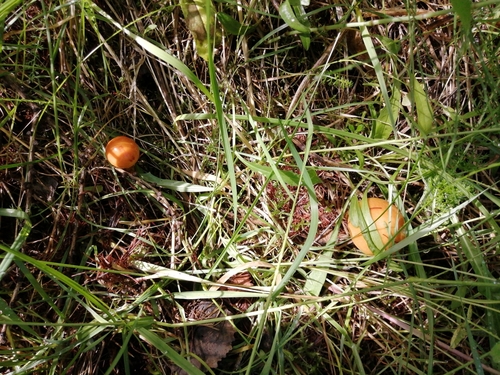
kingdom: Fungi
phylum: Basidiomycota
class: Agaricomycetes
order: Boletales
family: Suillaceae
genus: Suillus
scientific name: Suillus grevillei
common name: Larch bolete
